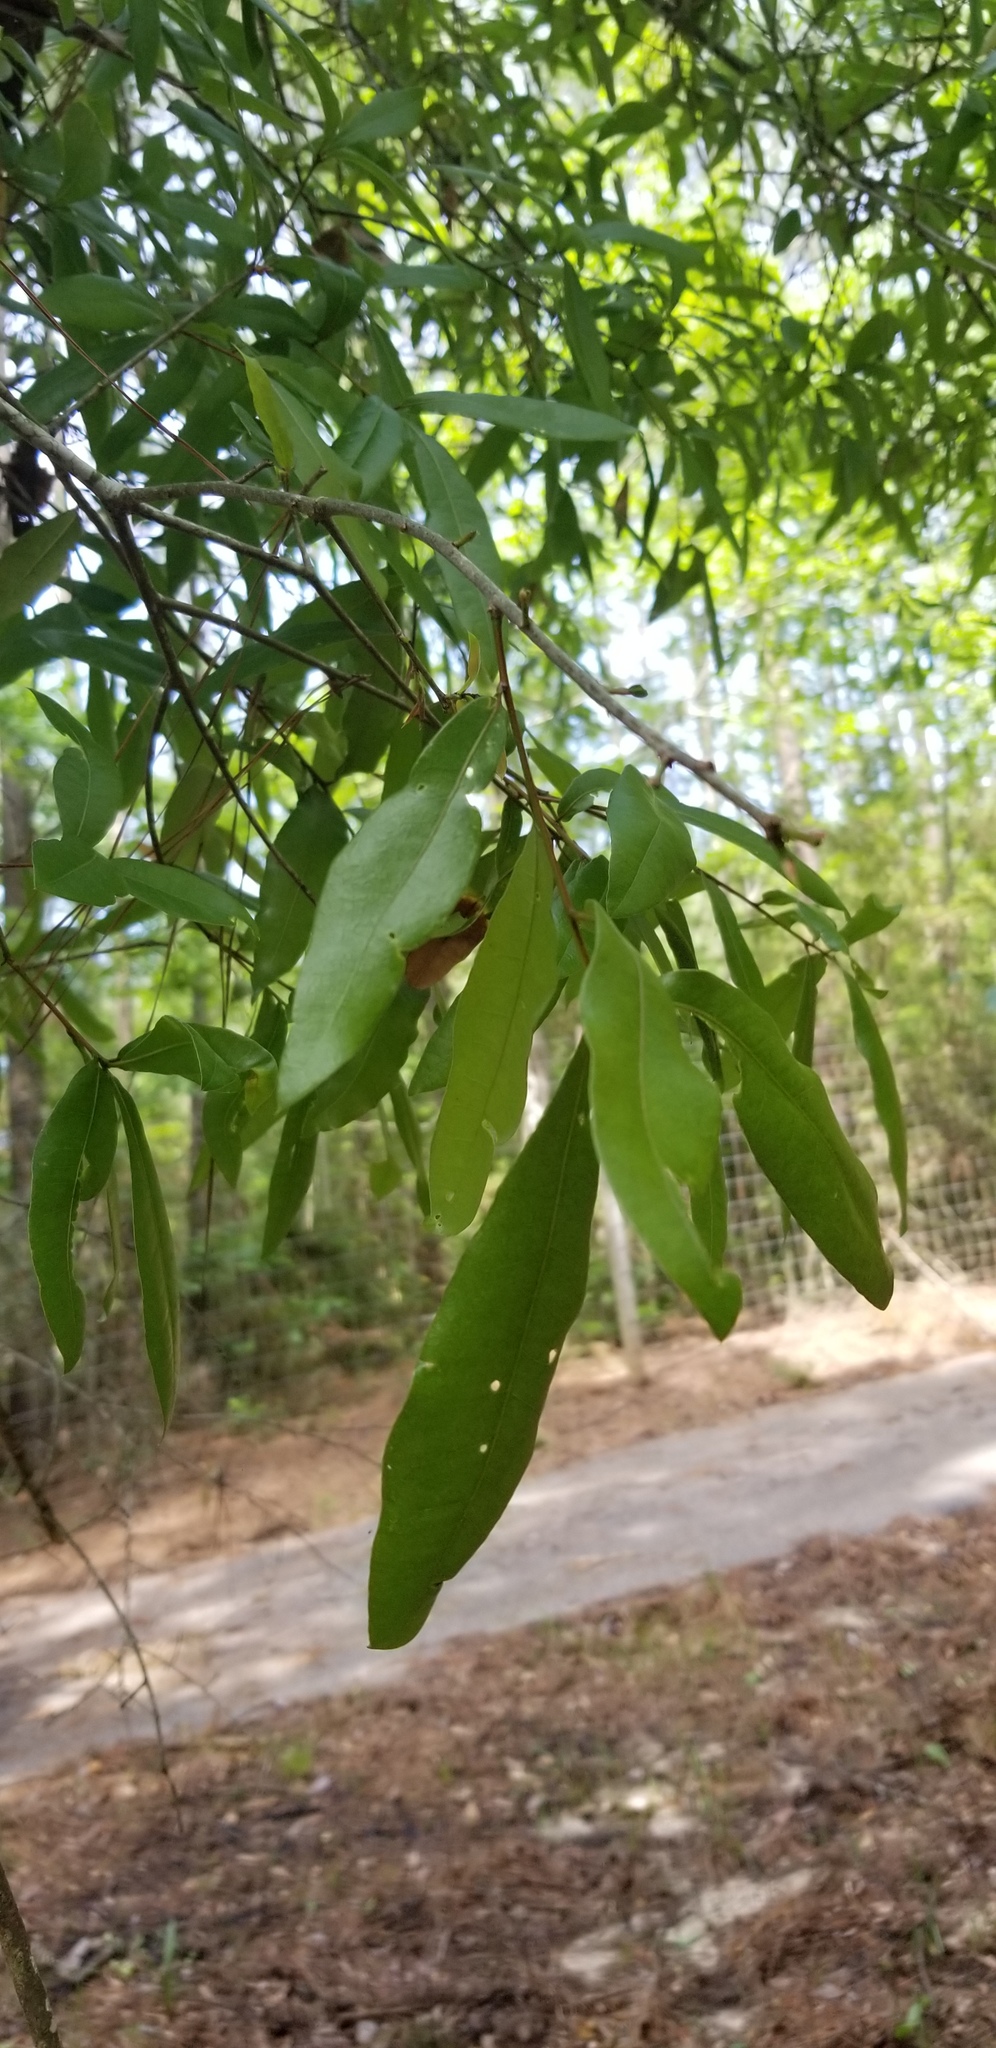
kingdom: Plantae
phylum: Tracheophyta
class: Magnoliopsida
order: Fagales
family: Fagaceae
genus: Quercus
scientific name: Quercus hemisphaerica
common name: Darlington oak
